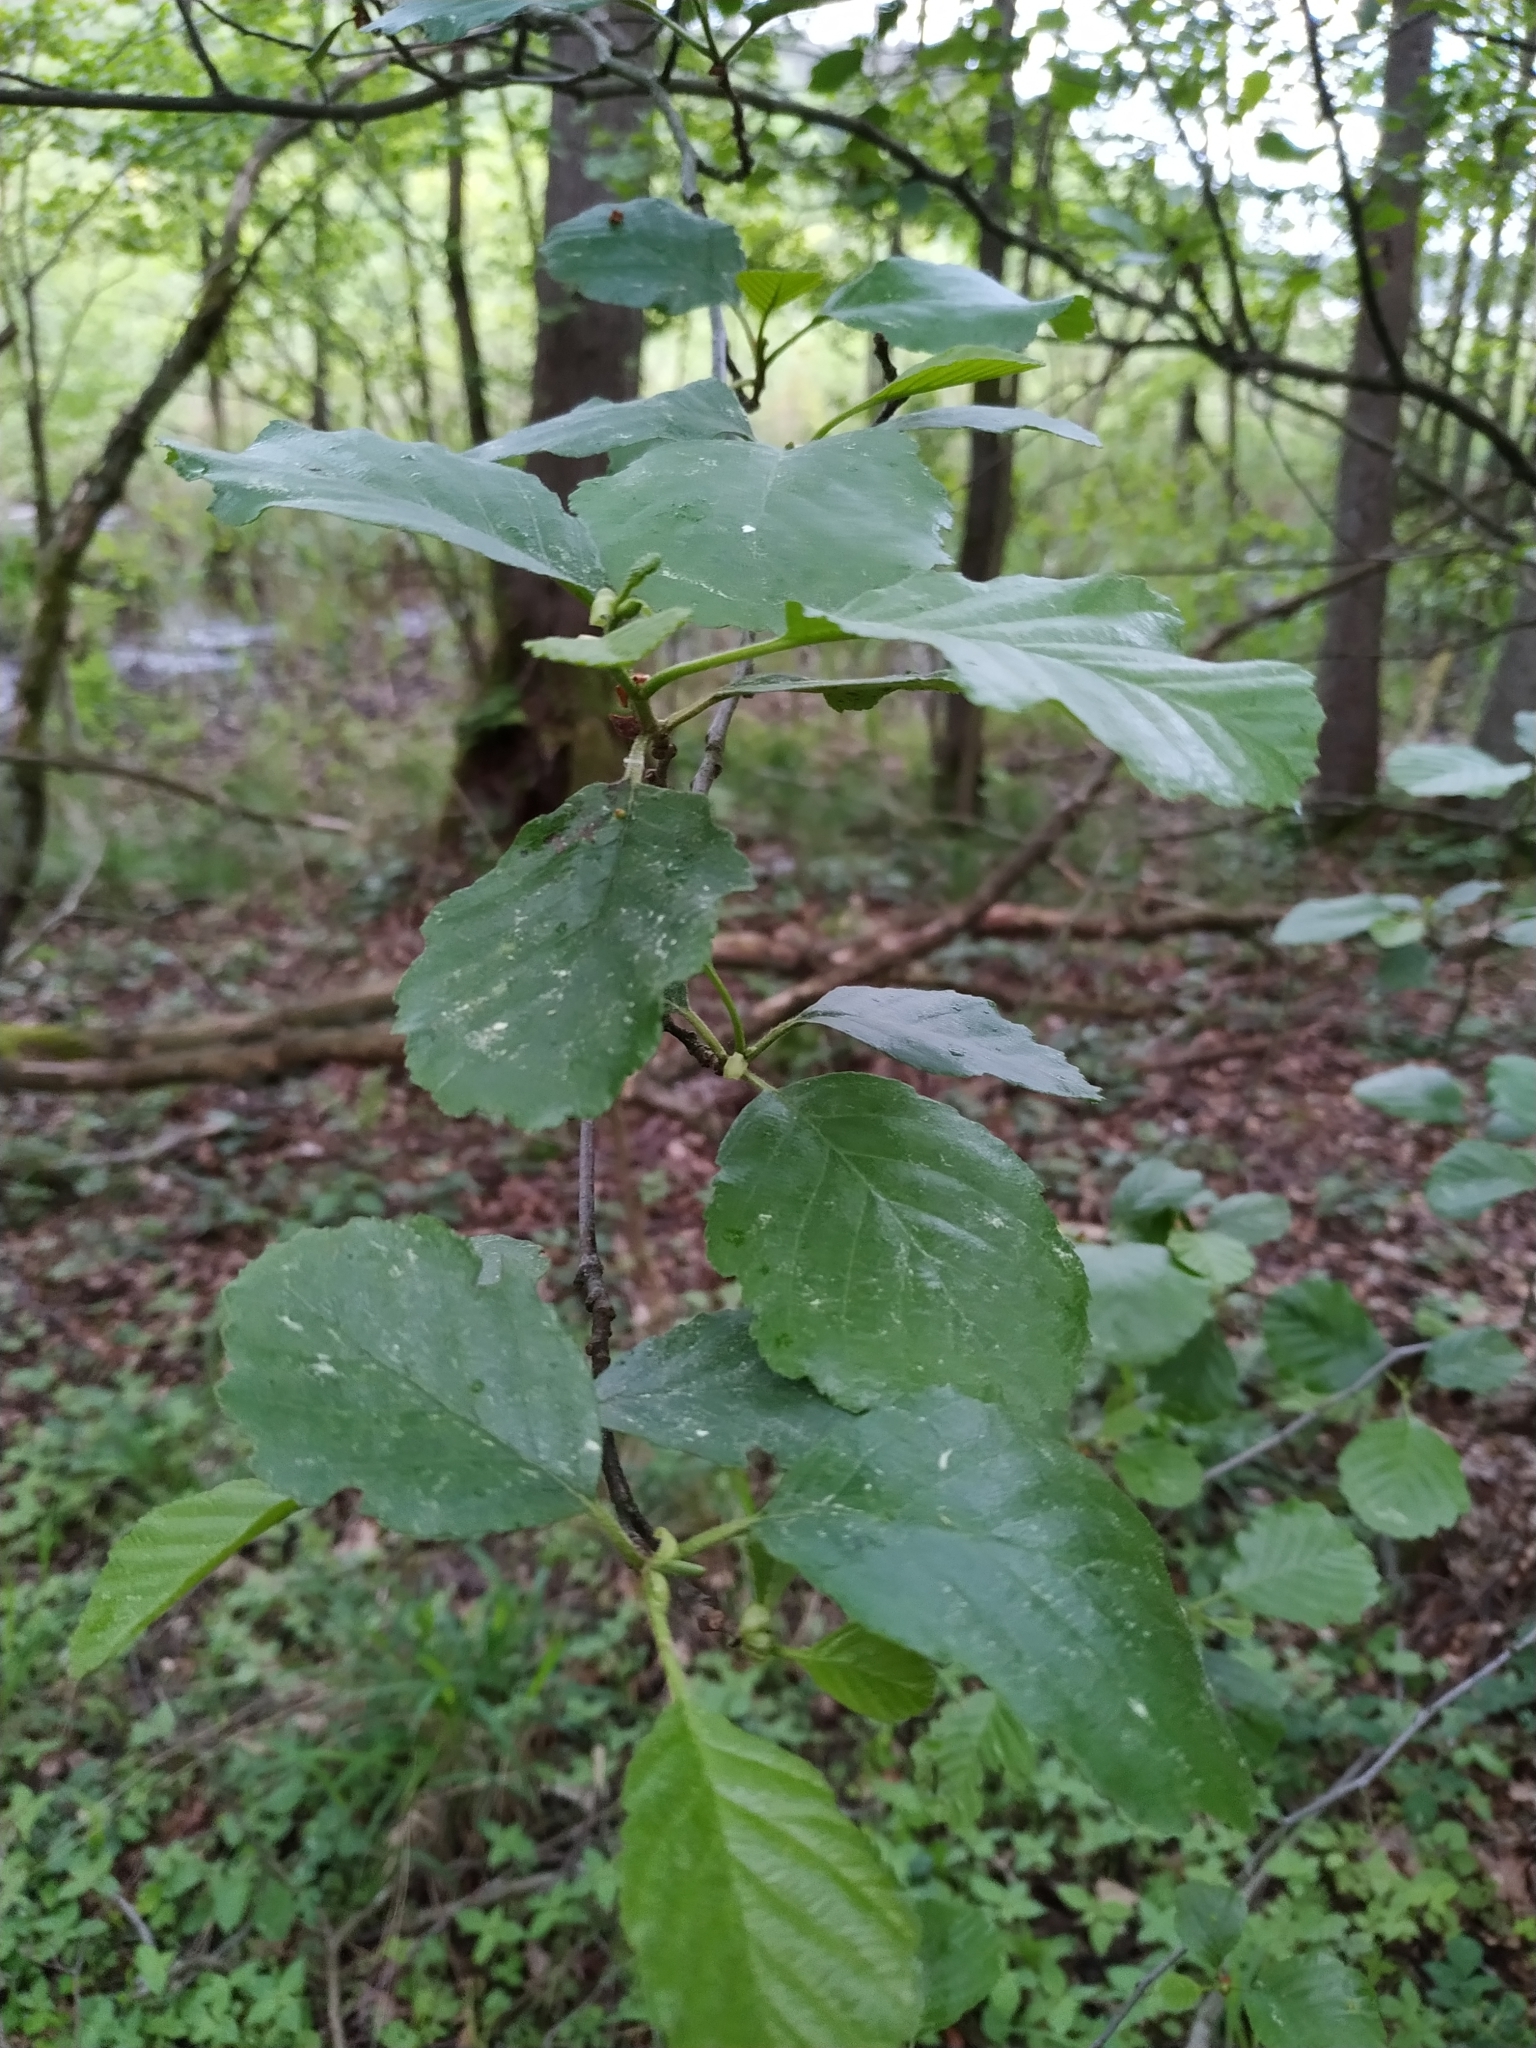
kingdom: Plantae
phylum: Tracheophyta
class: Magnoliopsida
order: Fagales
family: Betulaceae
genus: Alnus
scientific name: Alnus glutinosa
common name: Black alder
